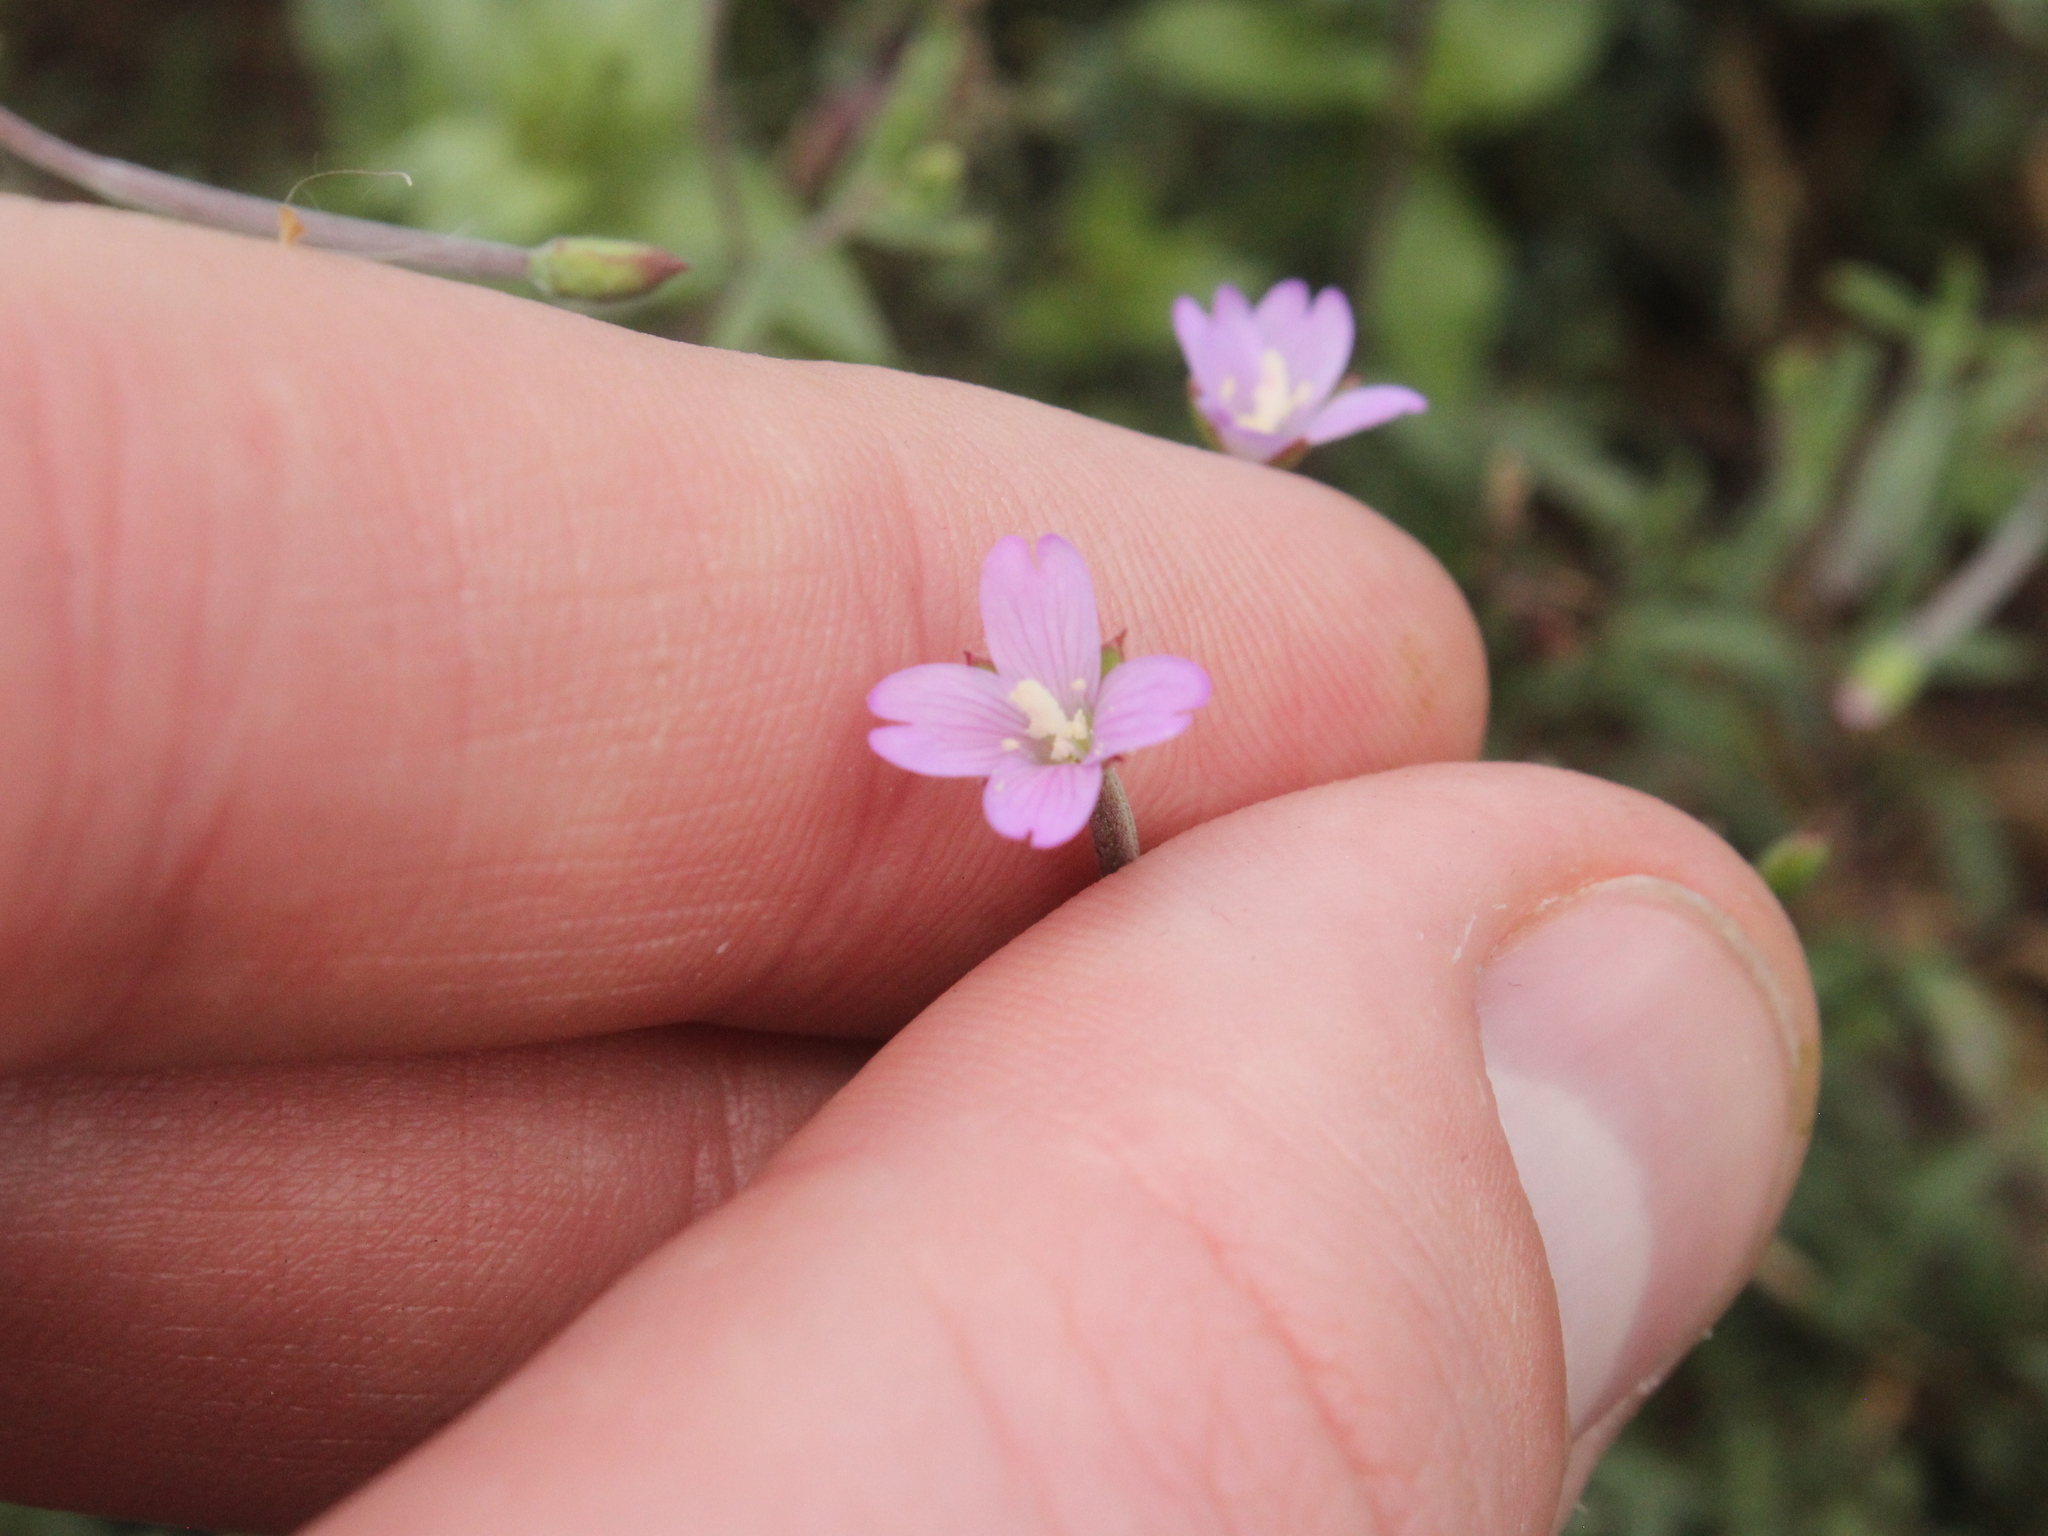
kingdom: Plantae
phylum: Tracheophyta
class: Magnoliopsida
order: Myrtales
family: Onagraceae
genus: Epilobium
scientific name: Epilobium billardierianum
